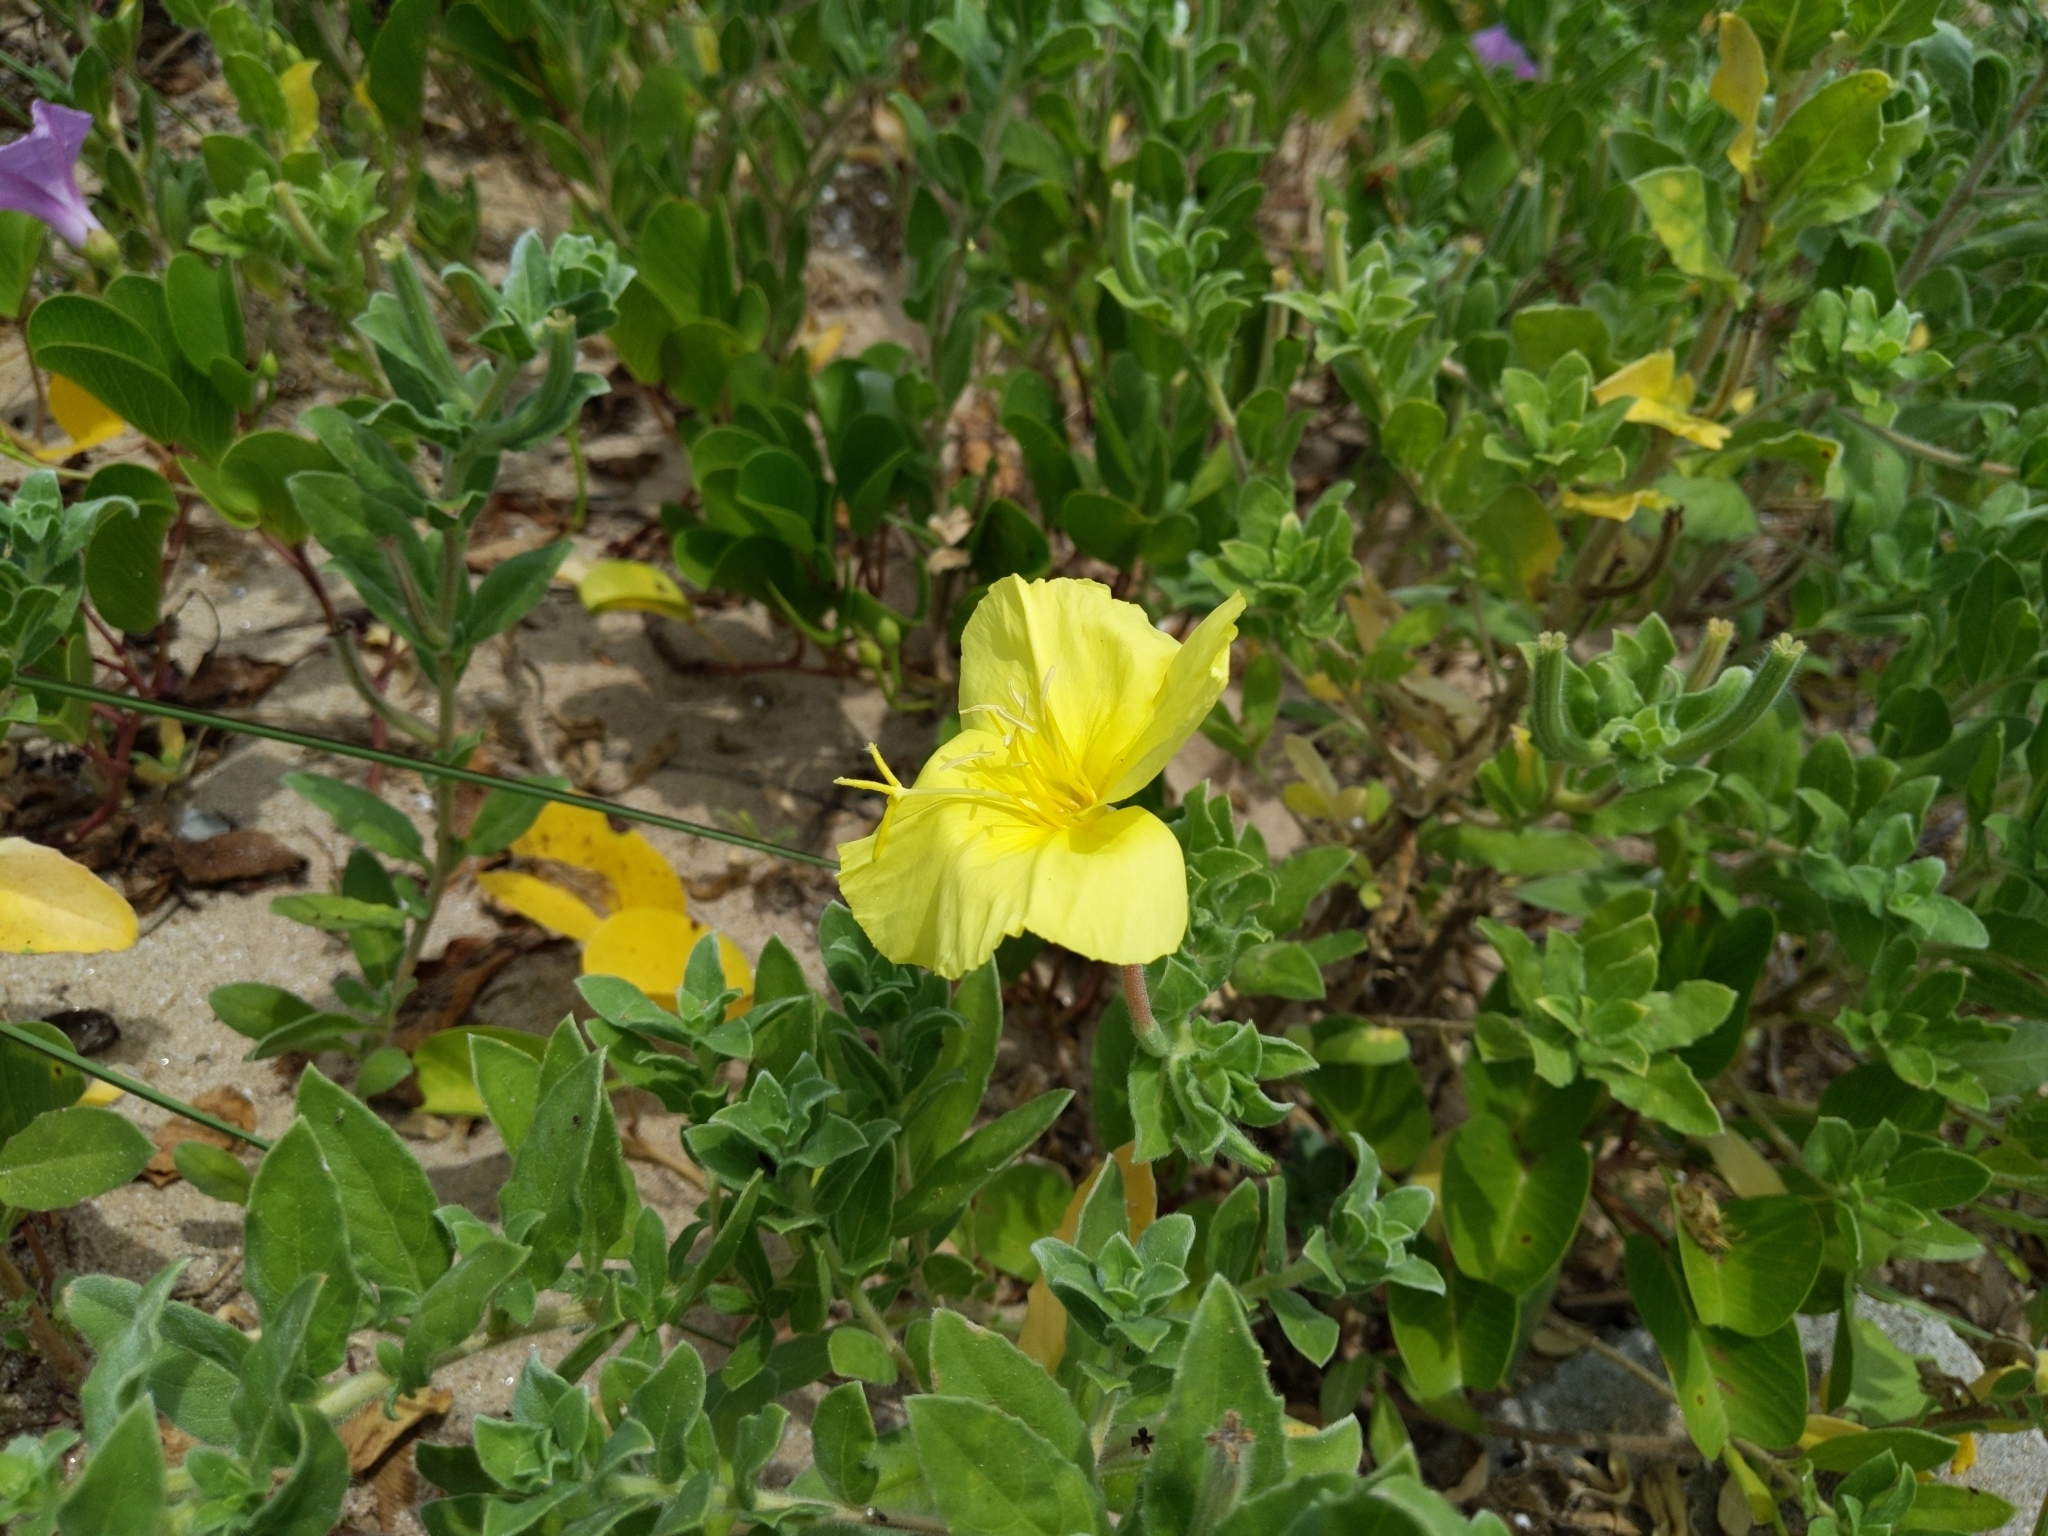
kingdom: Plantae
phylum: Tracheophyta
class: Magnoliopsida
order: Myrtales
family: Onagraceae
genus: Oenothera
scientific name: Oenothera drummondii
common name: Beach evening-primrose
